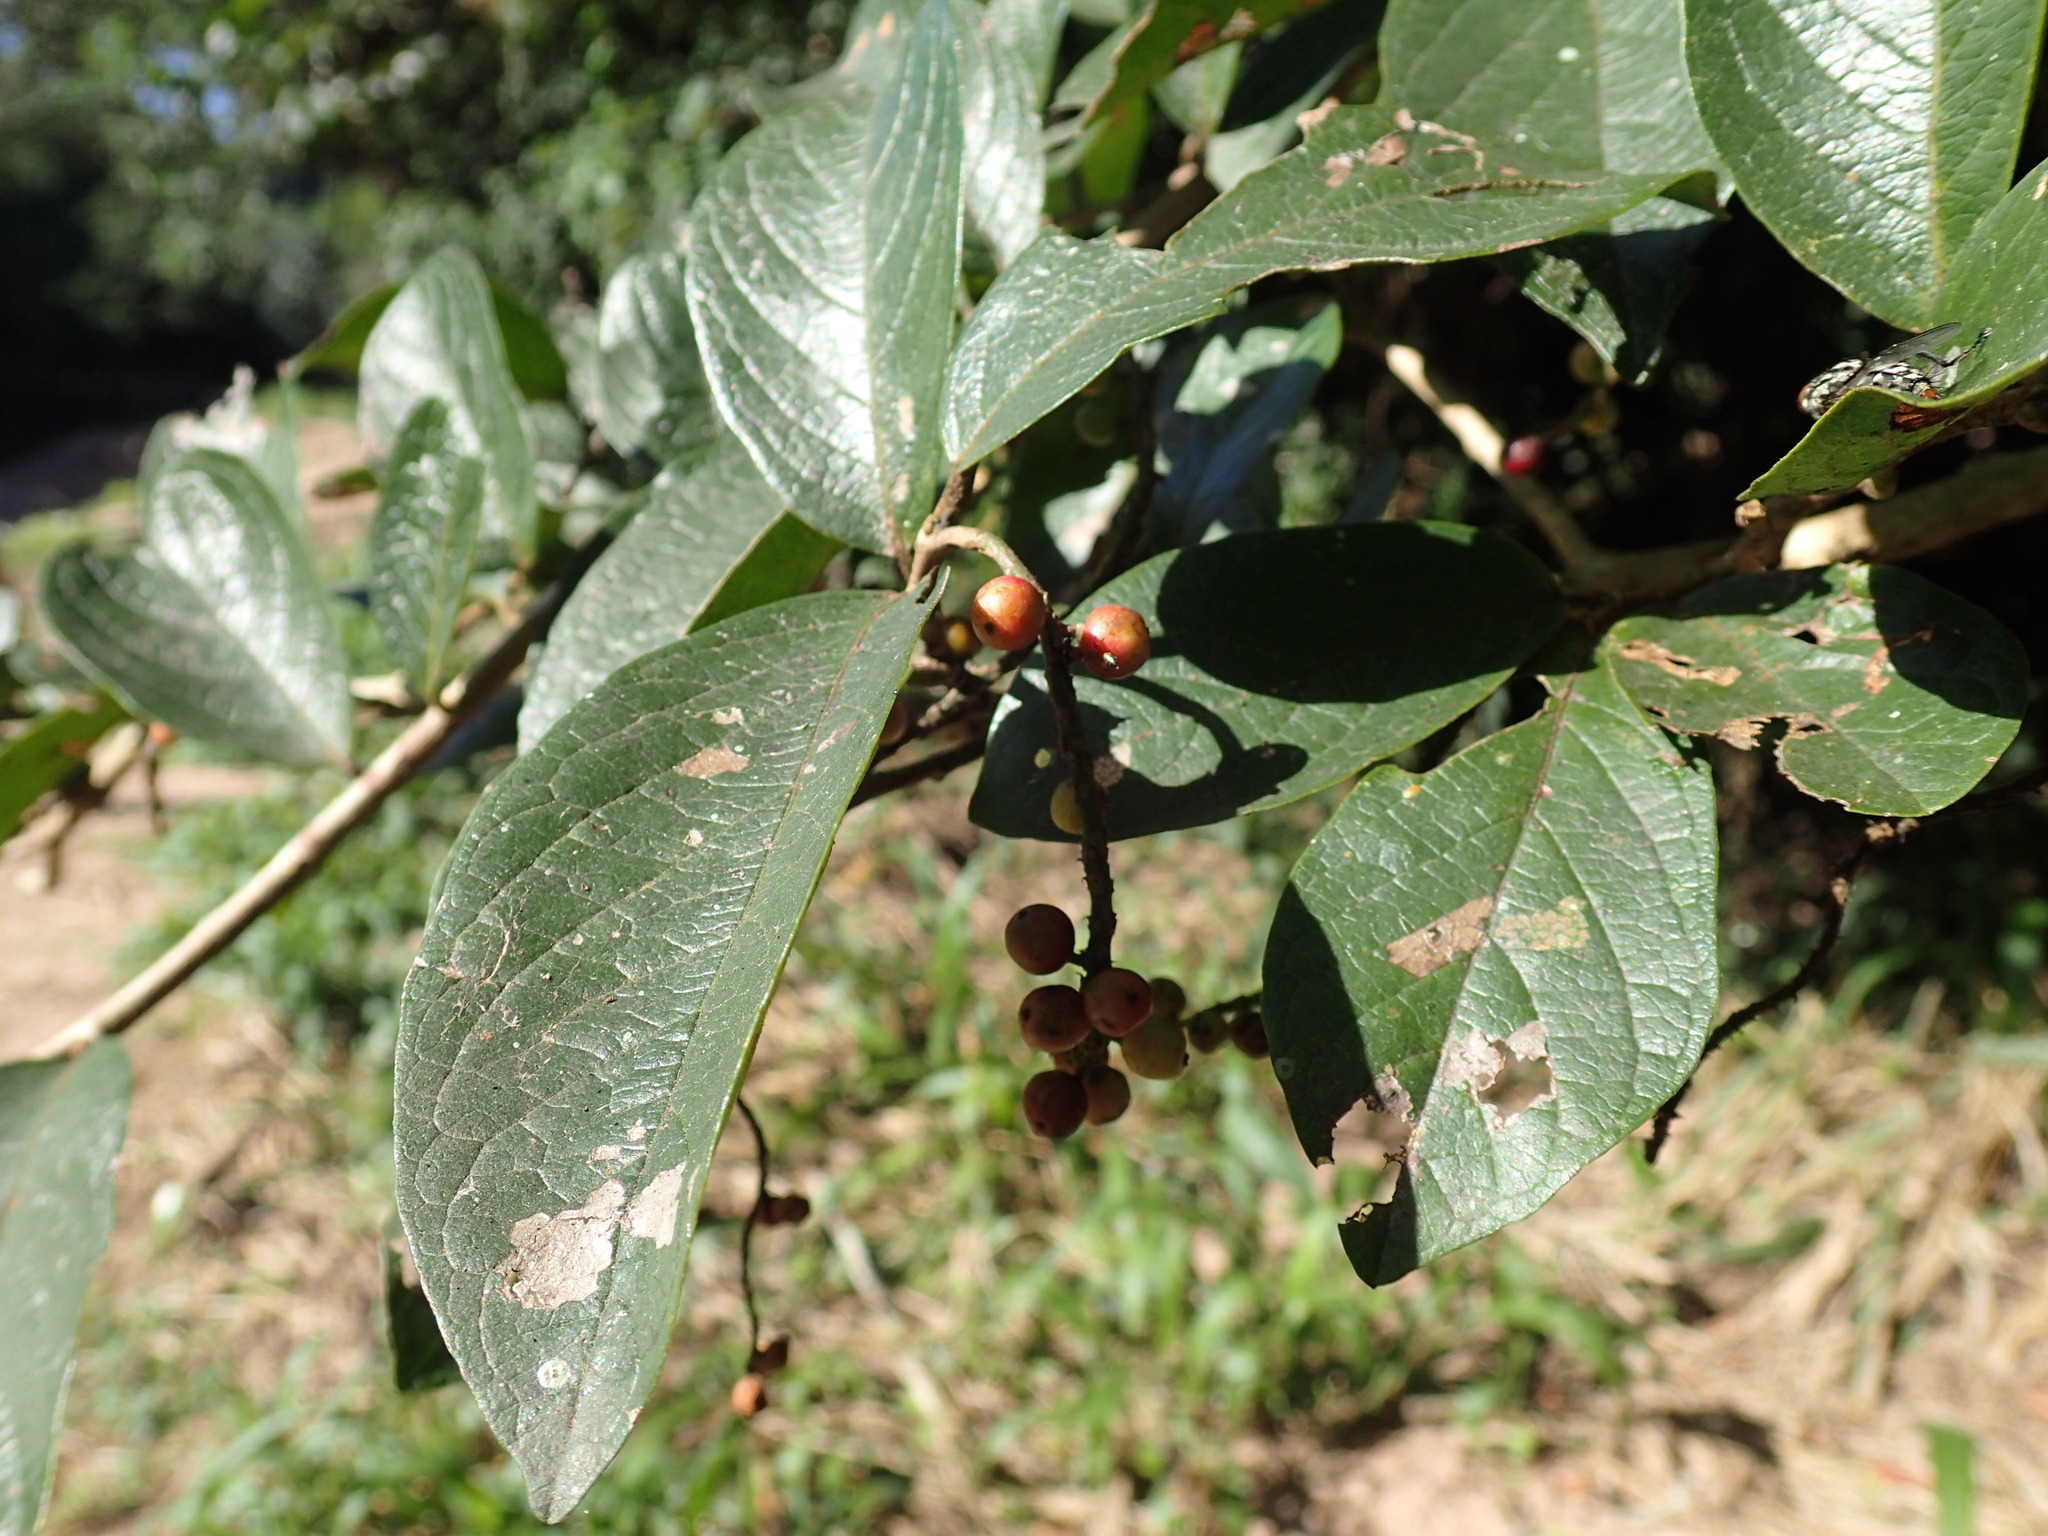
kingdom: Plantae
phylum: Tracheophyta
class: Magnoliopsida
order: Malpighiales
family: Phyllanthaceae
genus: Antidesma
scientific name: Antidesma venosum
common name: Tassel-berry
